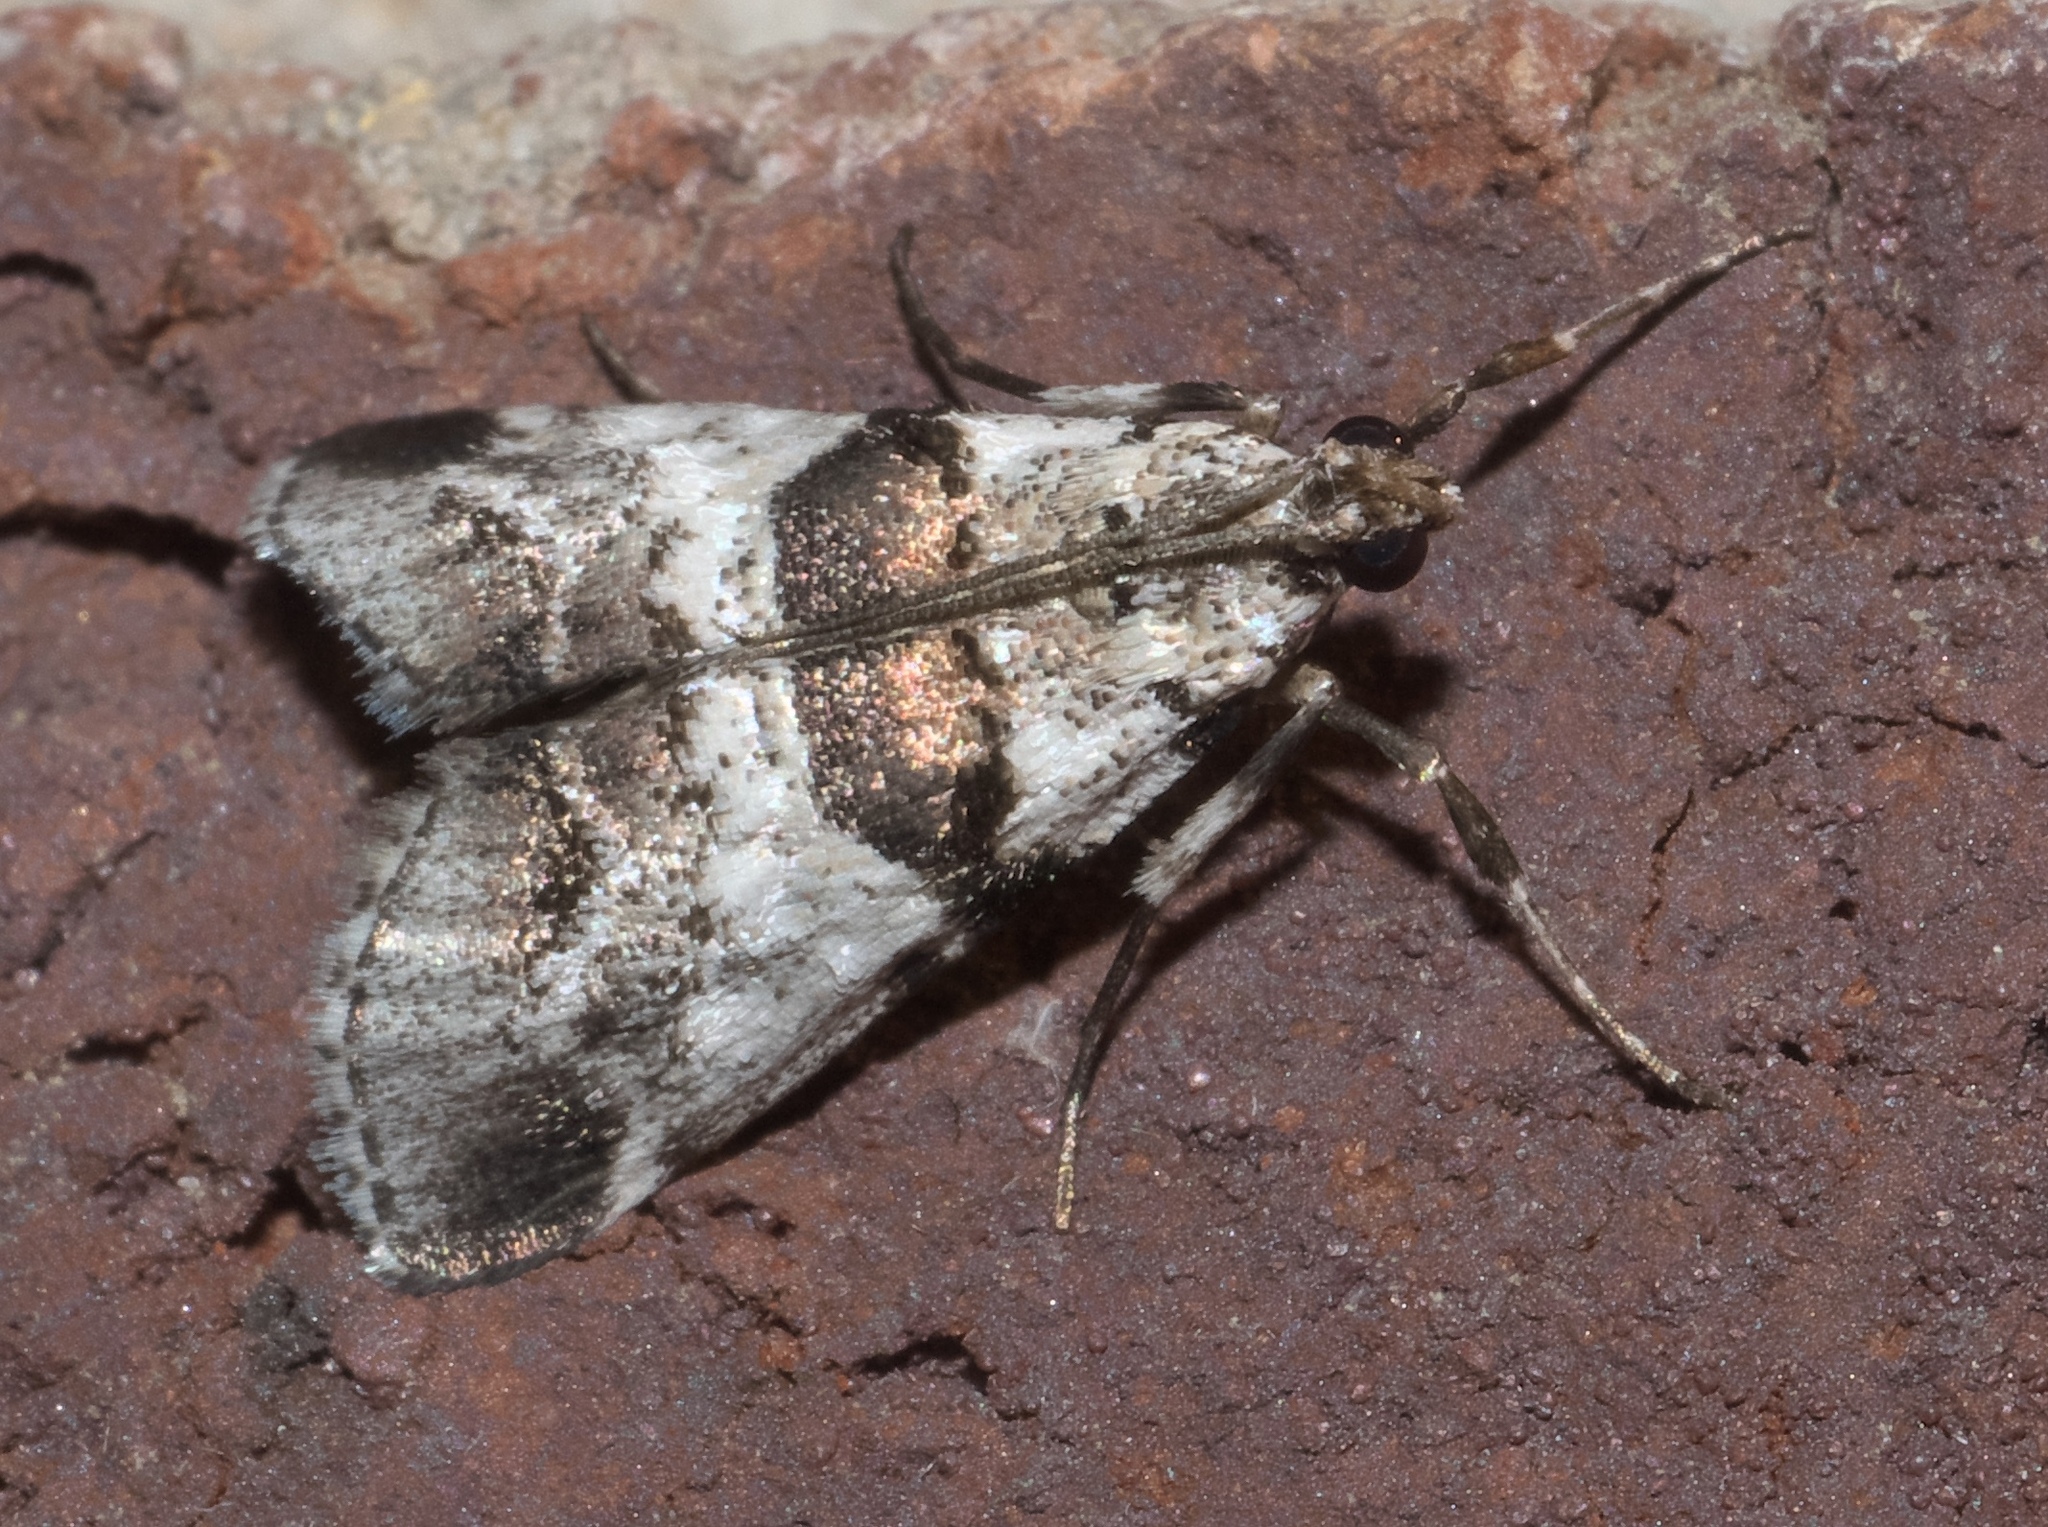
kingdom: Animalia
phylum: Arthropoda
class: Insecta
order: Lepidoptera
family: Pyralidae
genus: Tallula
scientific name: Tallula atrifascialis
